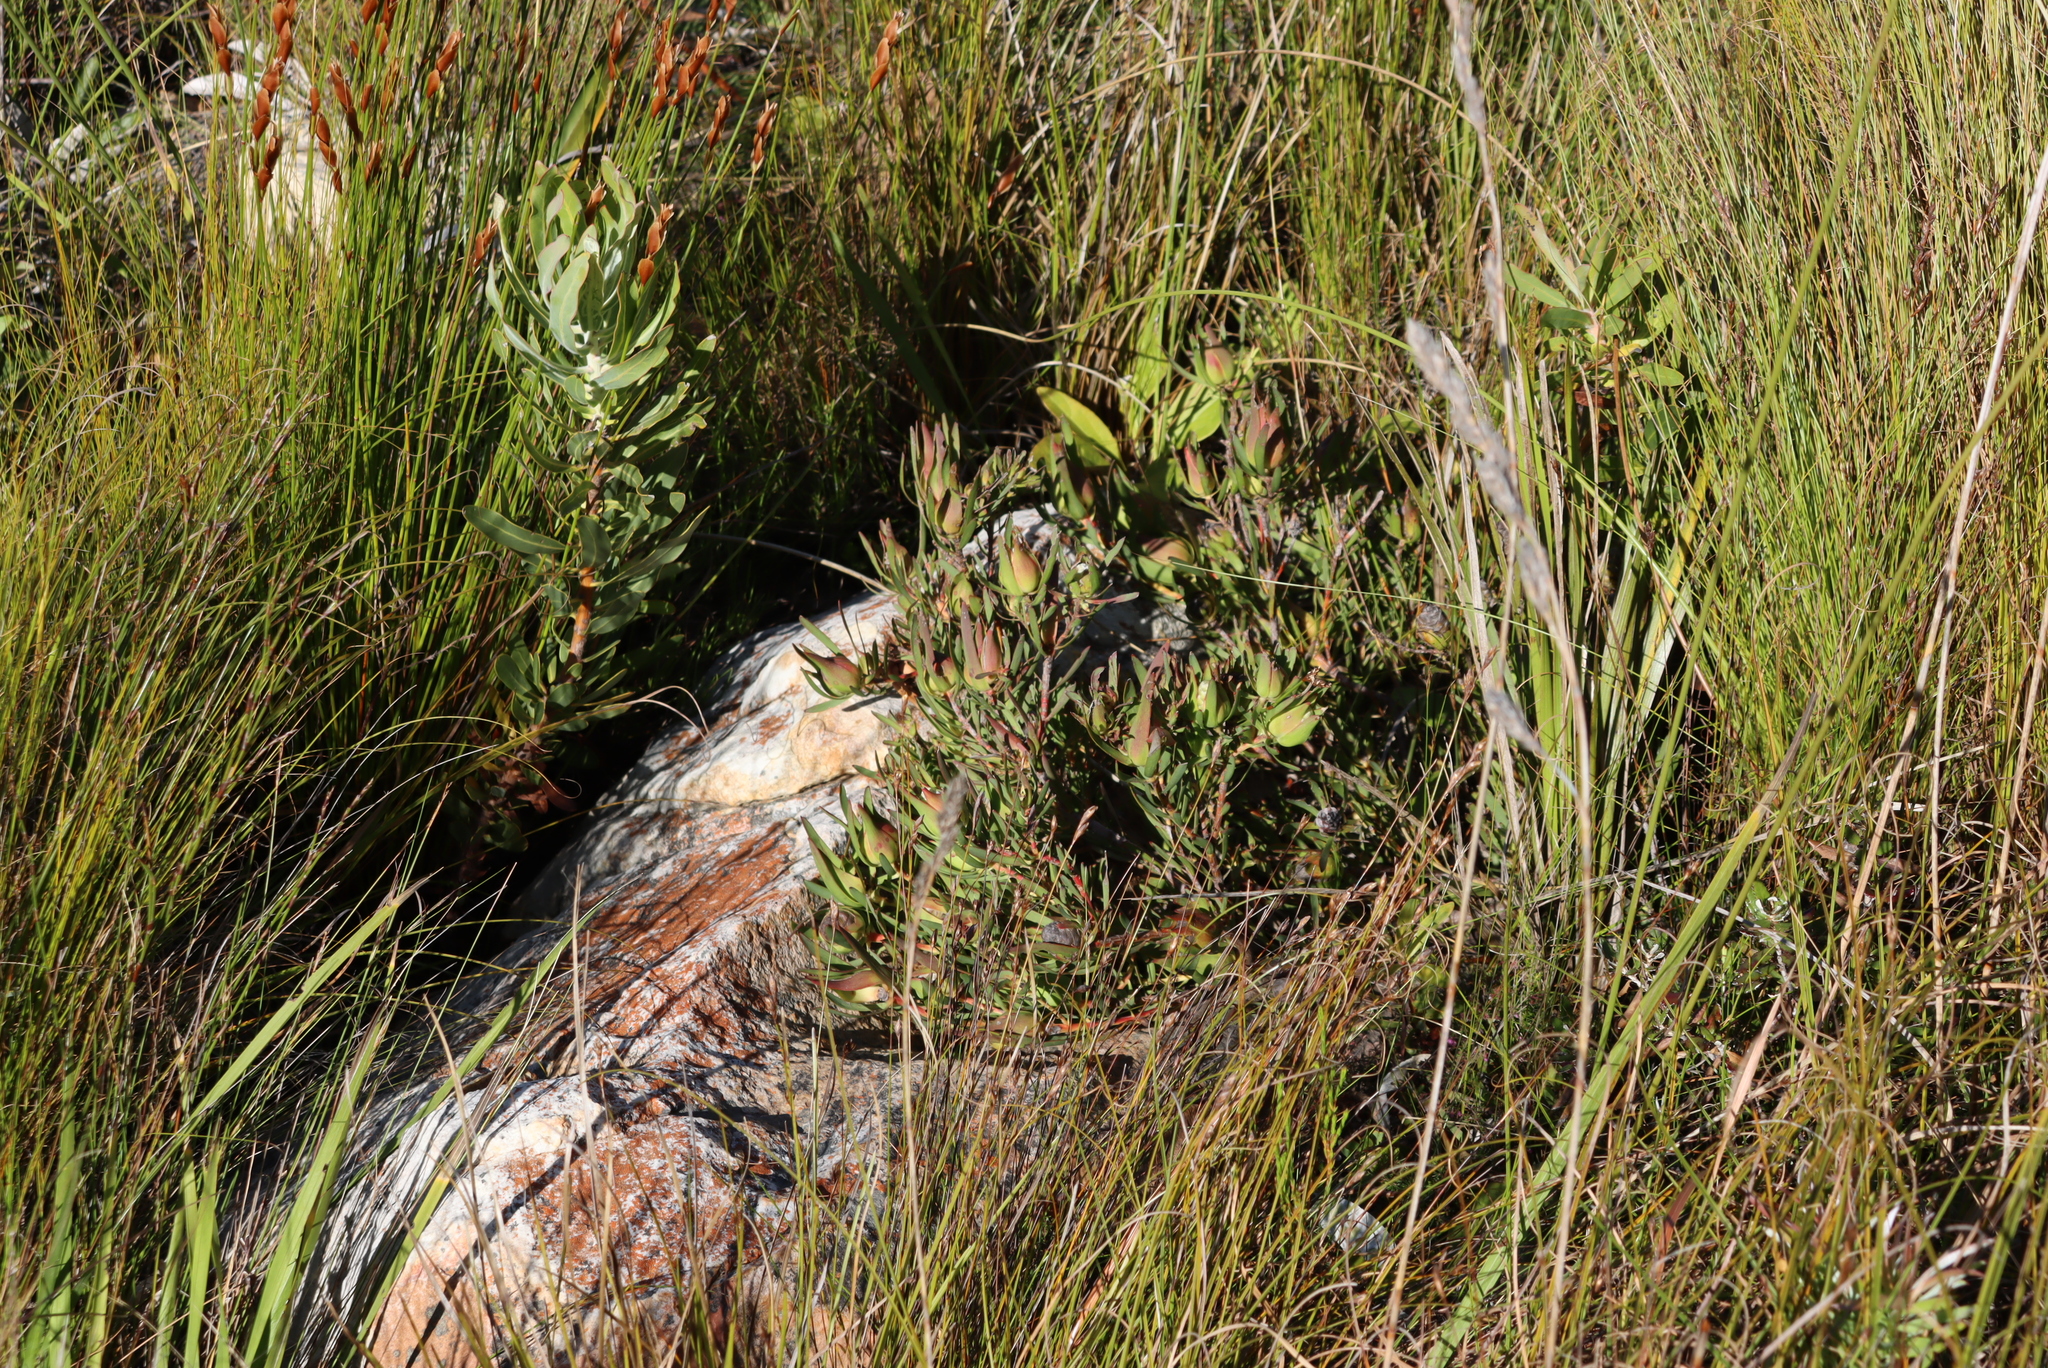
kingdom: Plantae
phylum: Tracheophyta
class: Magnoliopsida
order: Proteales
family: Proteaceae
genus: Leucadendron
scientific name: Leucadendron salignum
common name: Common sunshine conebush
